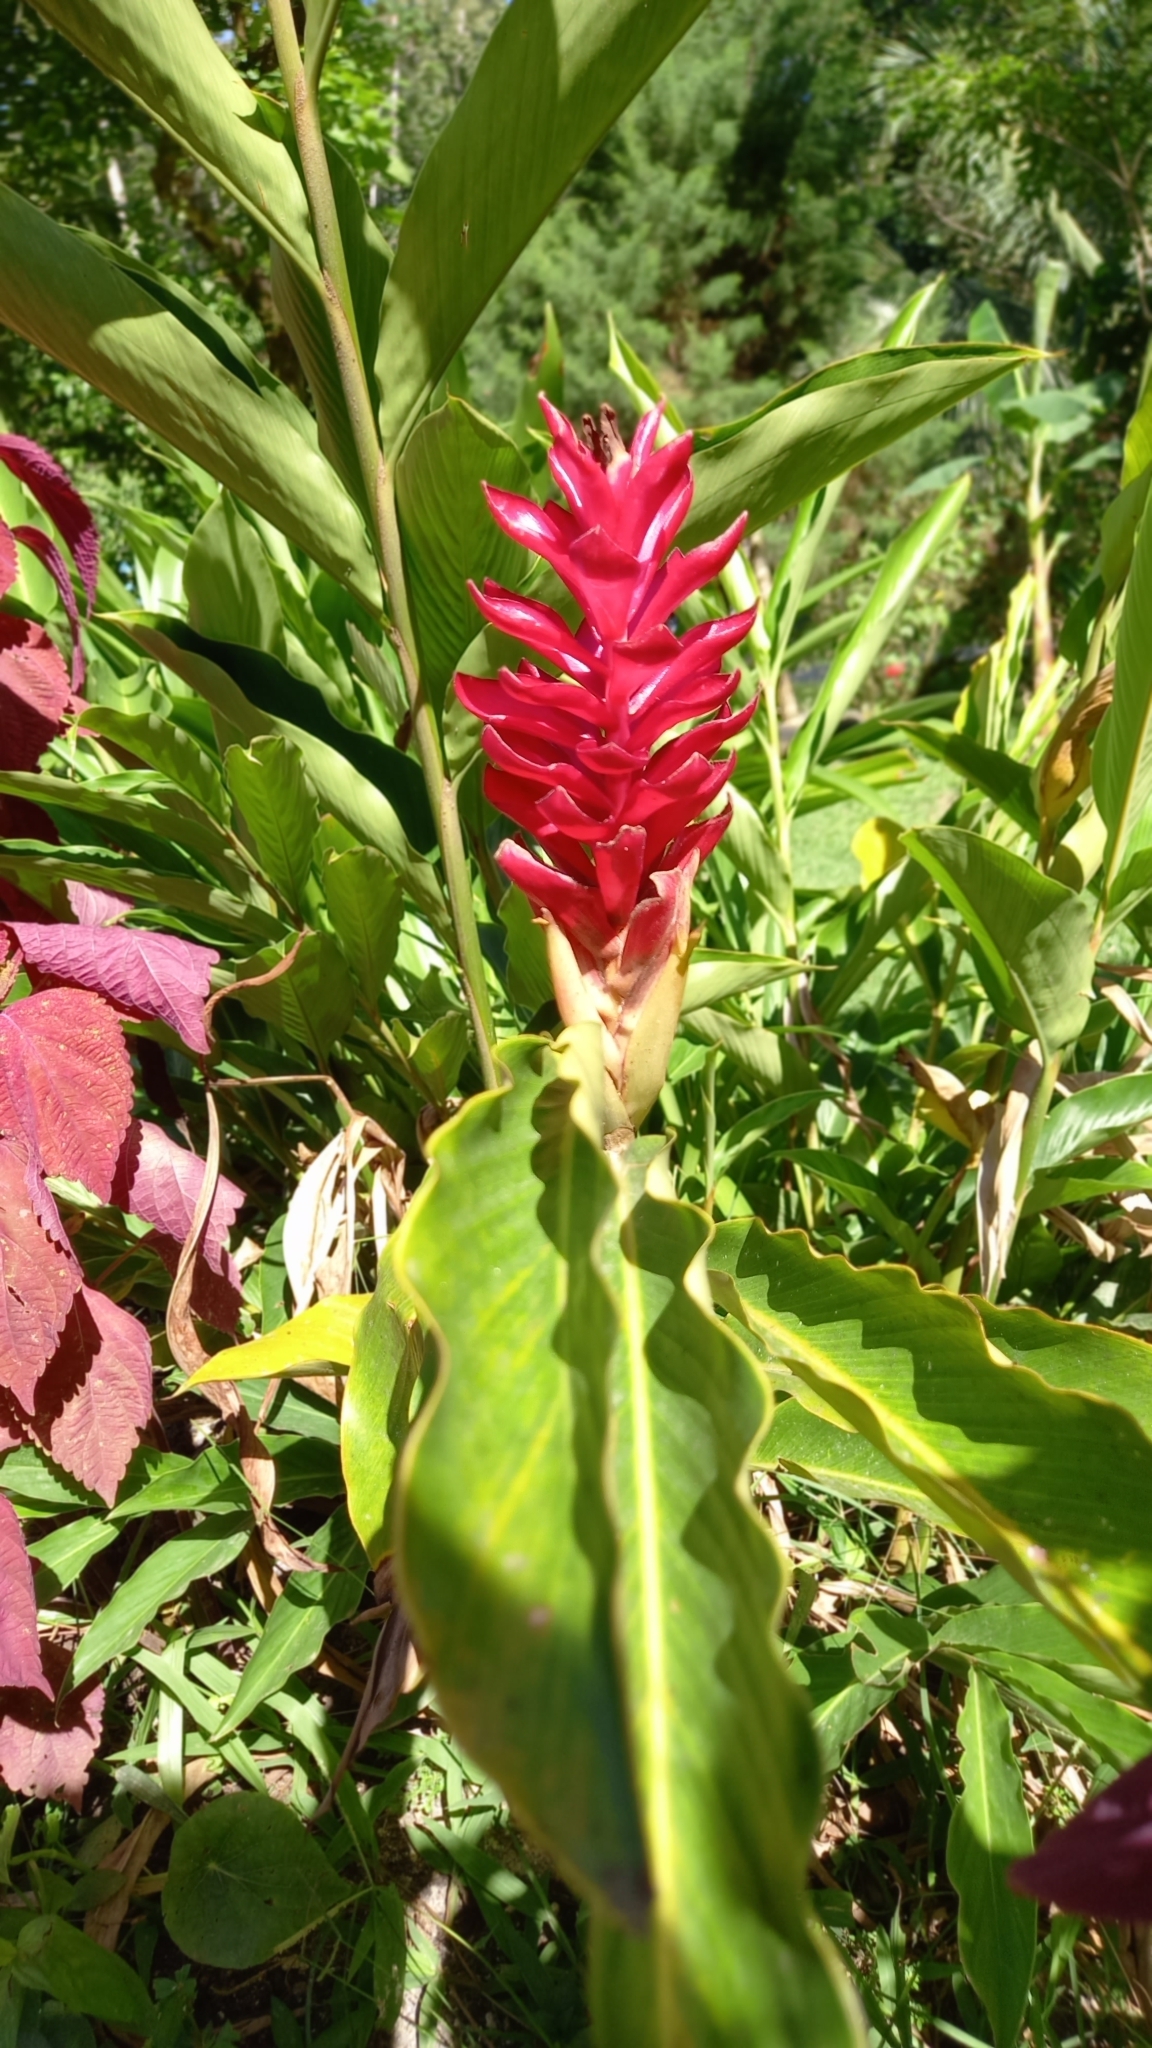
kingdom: Plantae
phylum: Tracheophyta
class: Liliopsida
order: Zingiberales
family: Zingiberaceae
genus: Alpinia
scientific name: Alpinia purpurata
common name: Red ginger
